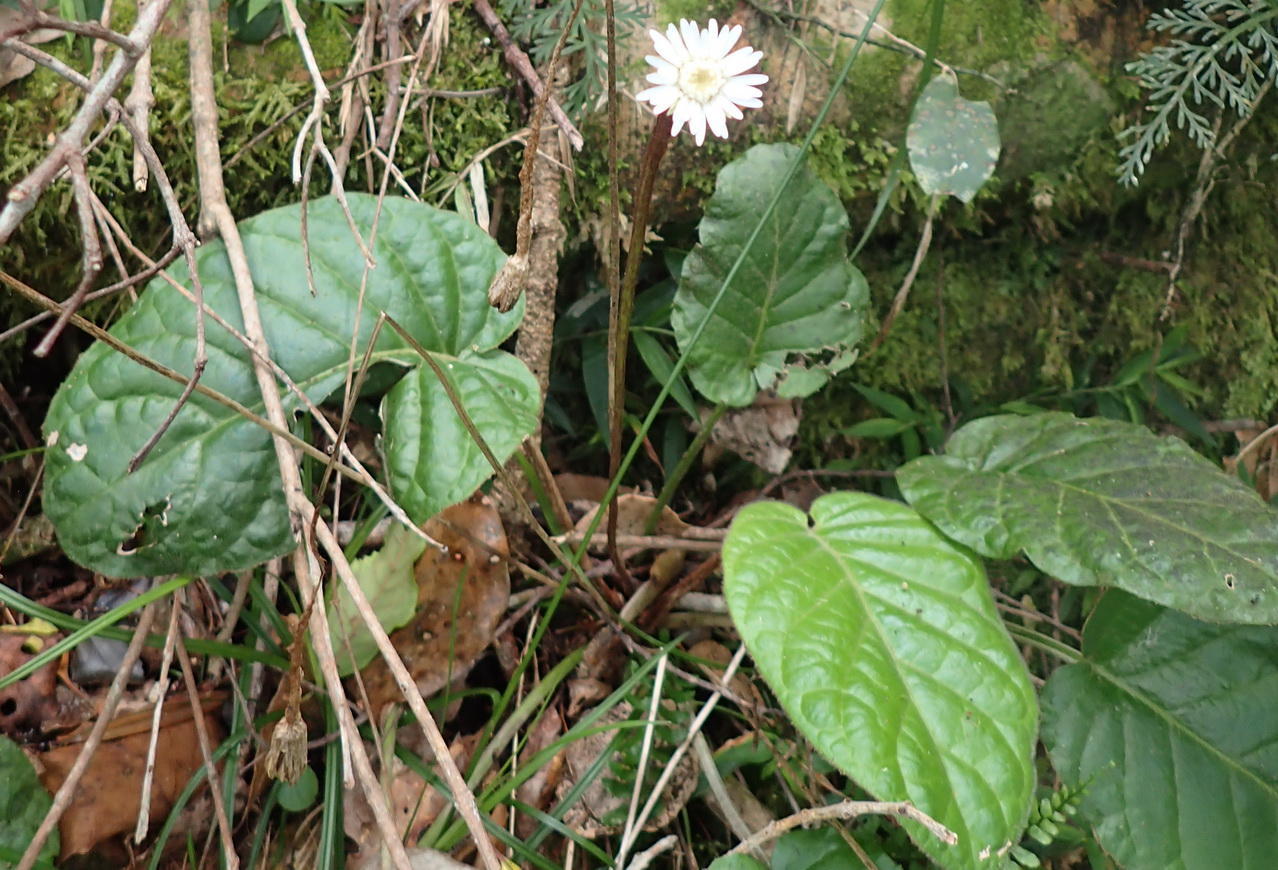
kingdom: Plantae
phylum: Tracheophyta
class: Magnoliopsida
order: Asterales
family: Asteraceae
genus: Piloselloides
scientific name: Piloselloides cordata
